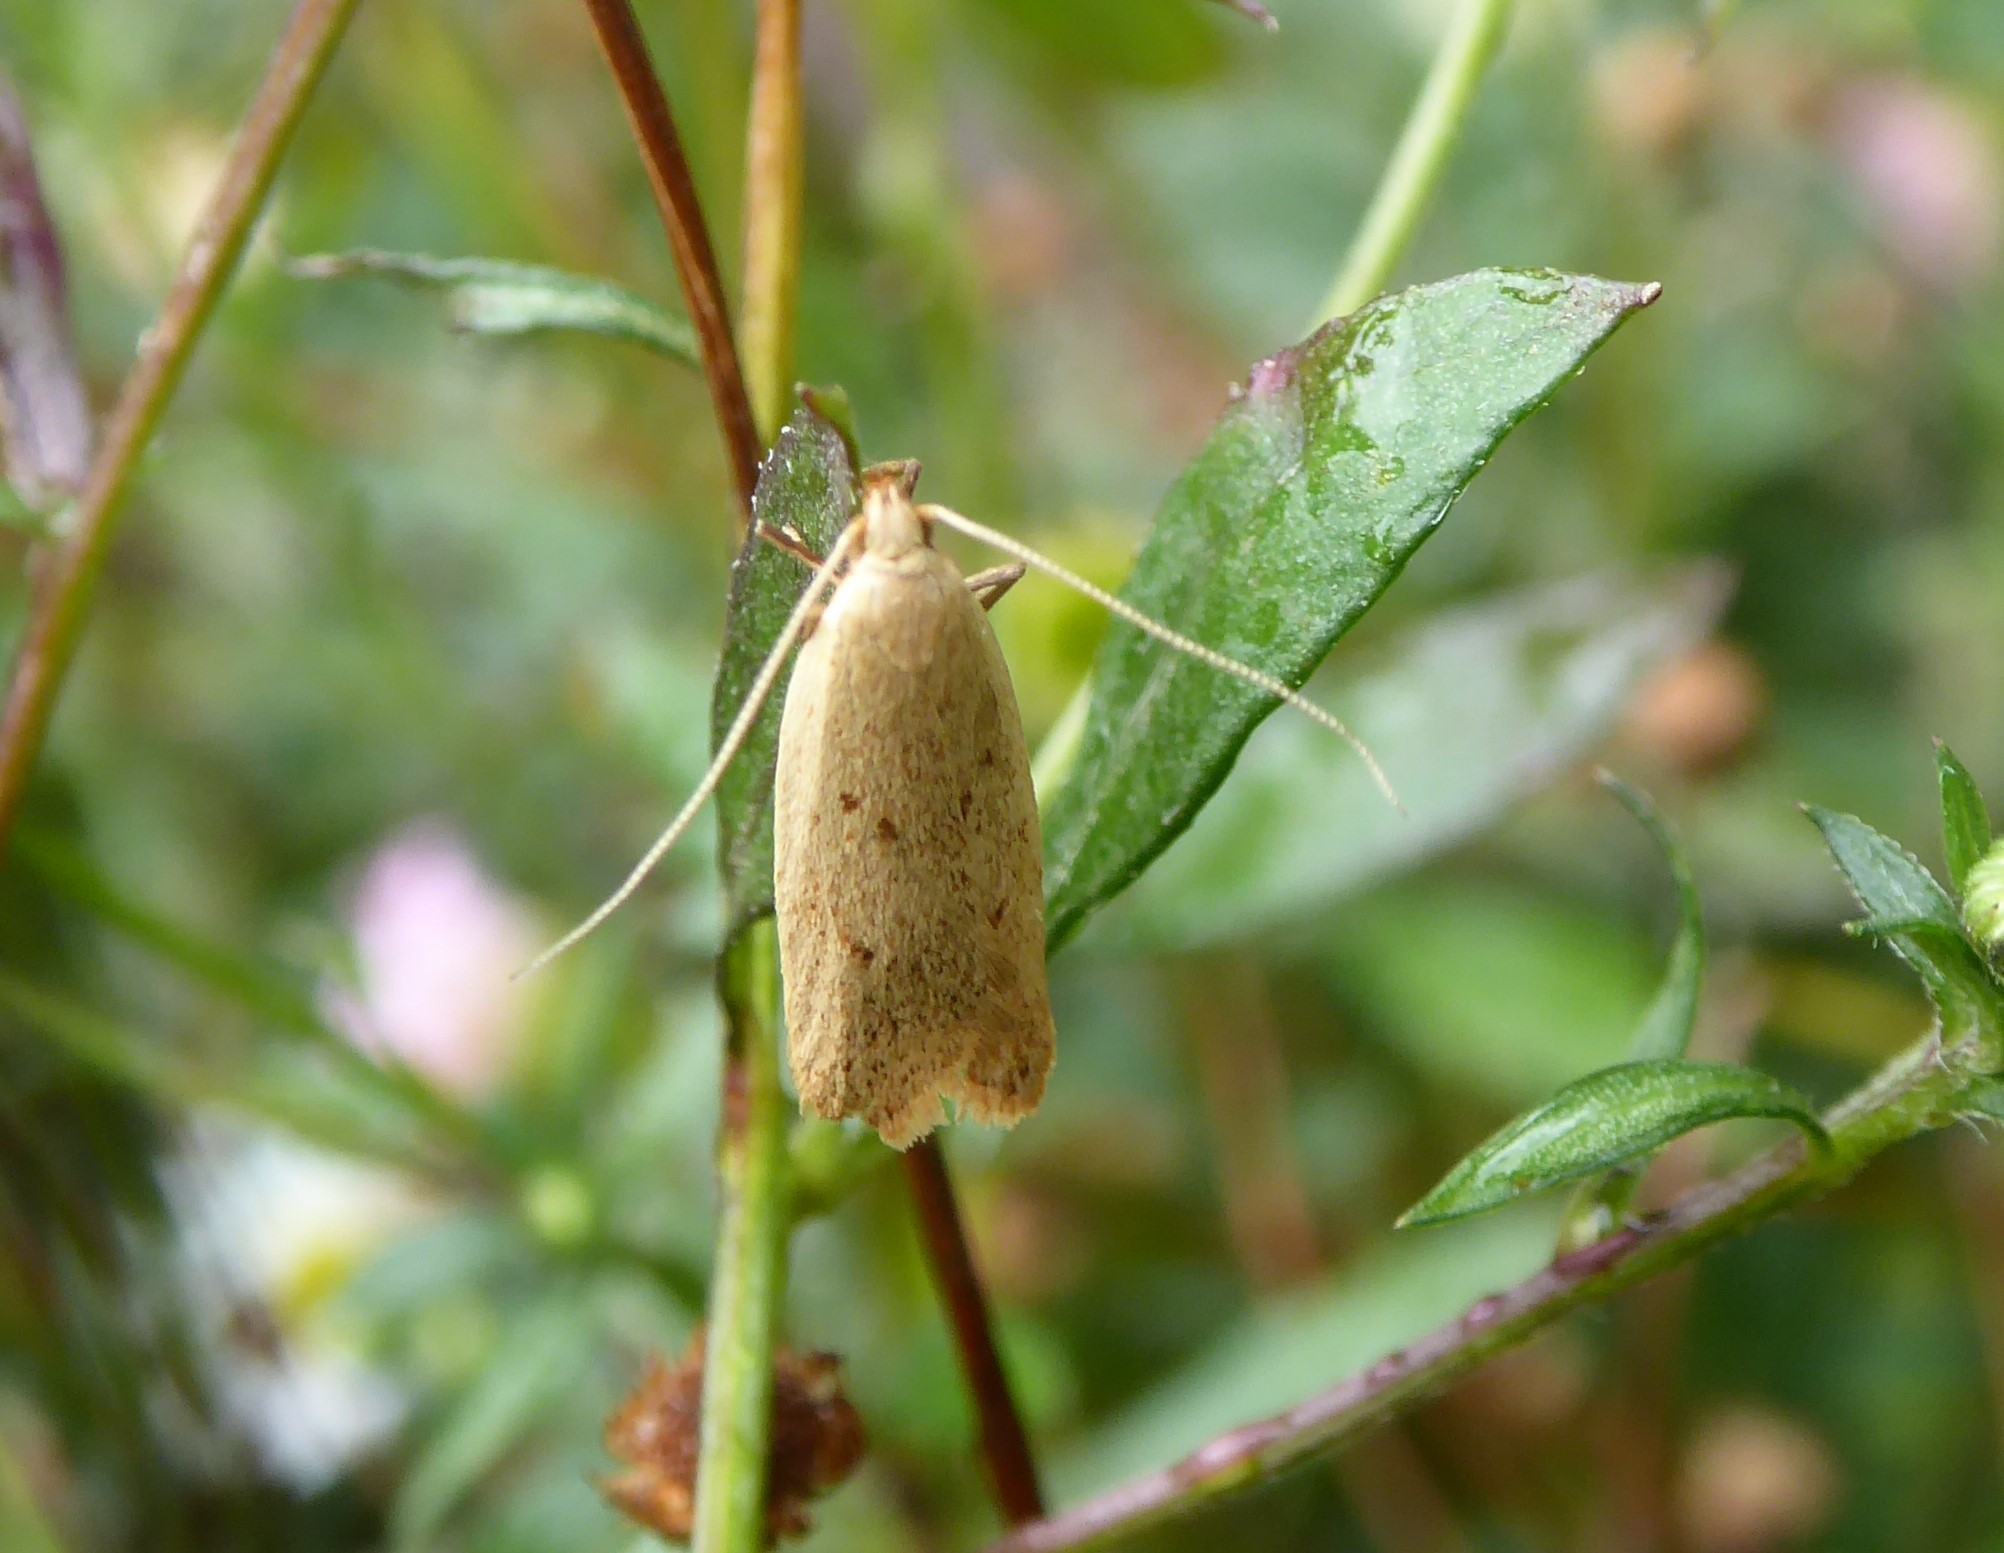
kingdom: Animalia
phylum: Arthropoda
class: Insecta
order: Lepidoptera
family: Oecophoridae
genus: Gymnobathra
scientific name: Gymnobathra sarcoxantha
